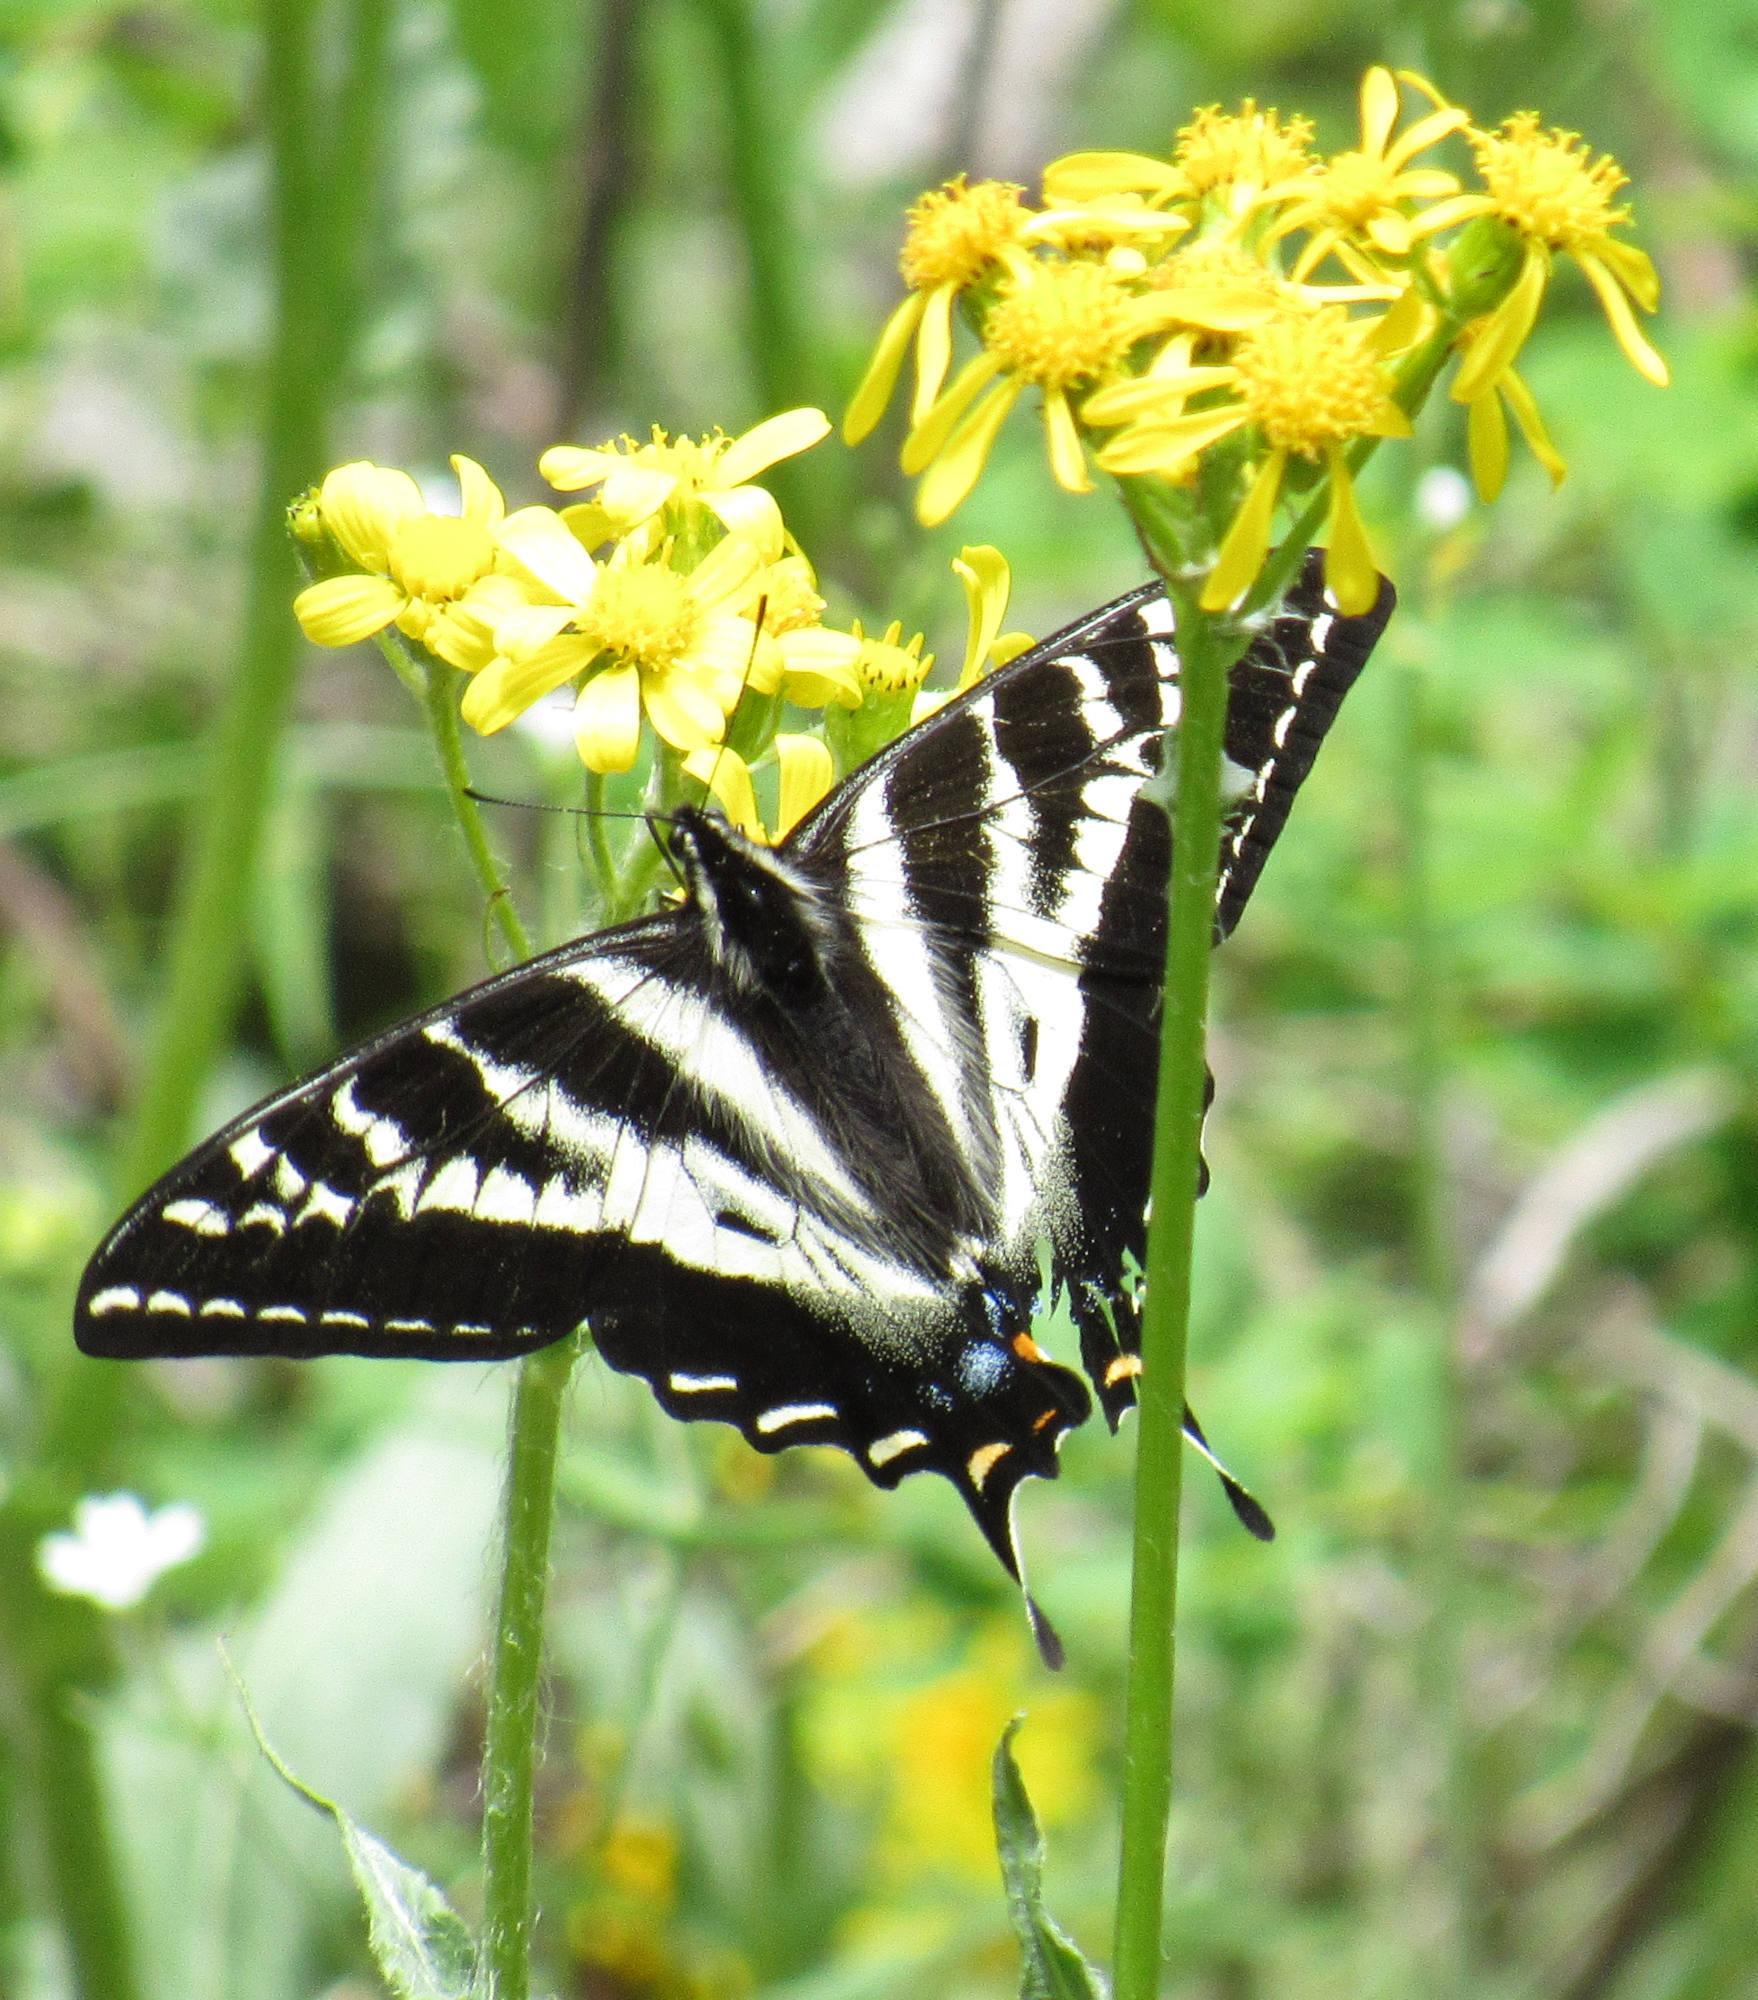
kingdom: Animalia
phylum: Arthropoda
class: Insecta
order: Lepidoptera
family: Papilionidae
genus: Papilio
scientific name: Papilio eurymedon
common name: Pale tiger swallowtail
